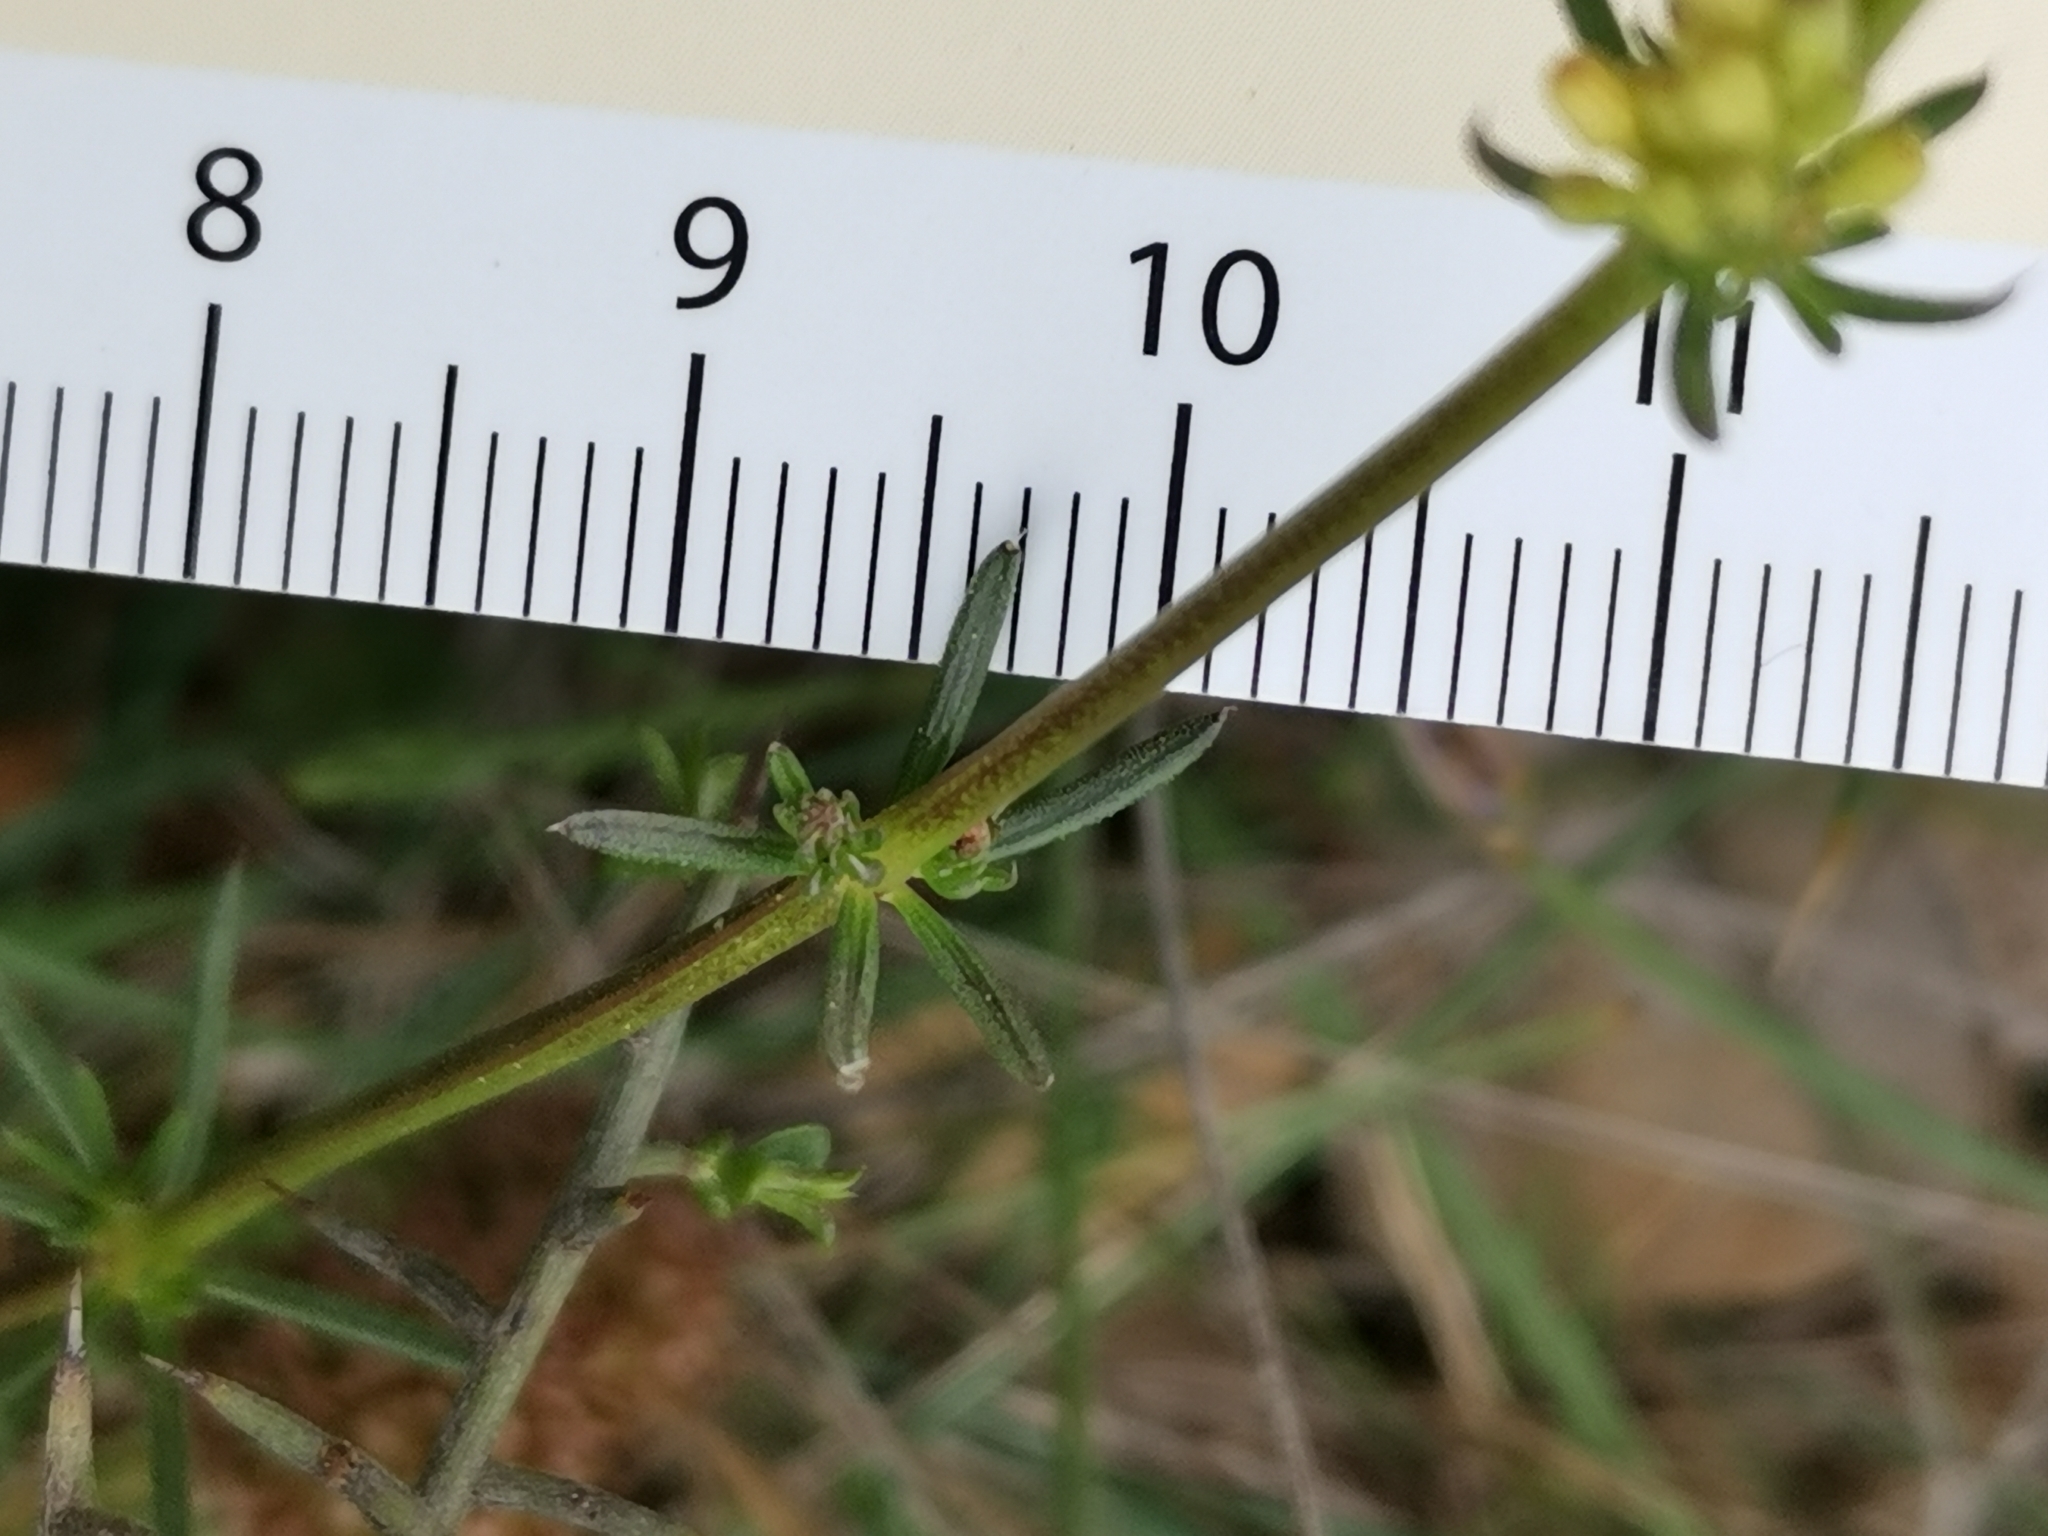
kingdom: Plantae
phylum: Tracheophyta
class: Magnoliopsida
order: Gentianales
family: Rubiaceae
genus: Galium
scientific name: Galium lucidum
